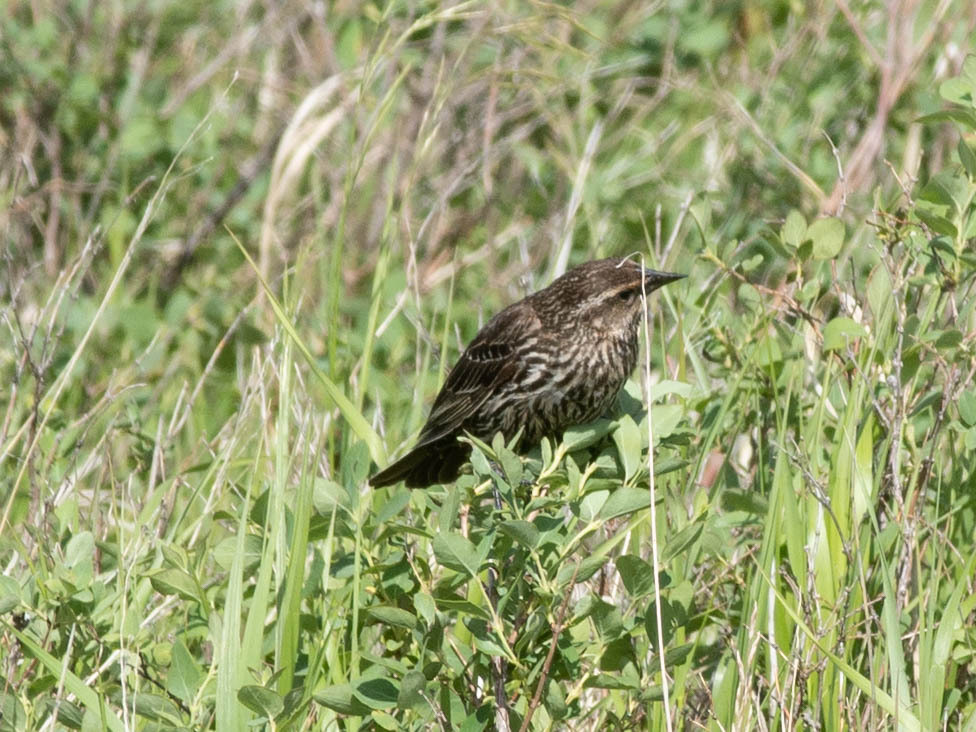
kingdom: Animalia
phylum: Chordata
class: Aves
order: Passeriformes
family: Icteridae
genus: Agelaius
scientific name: Agelaius phoeniceus
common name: Red-winged blackbird
